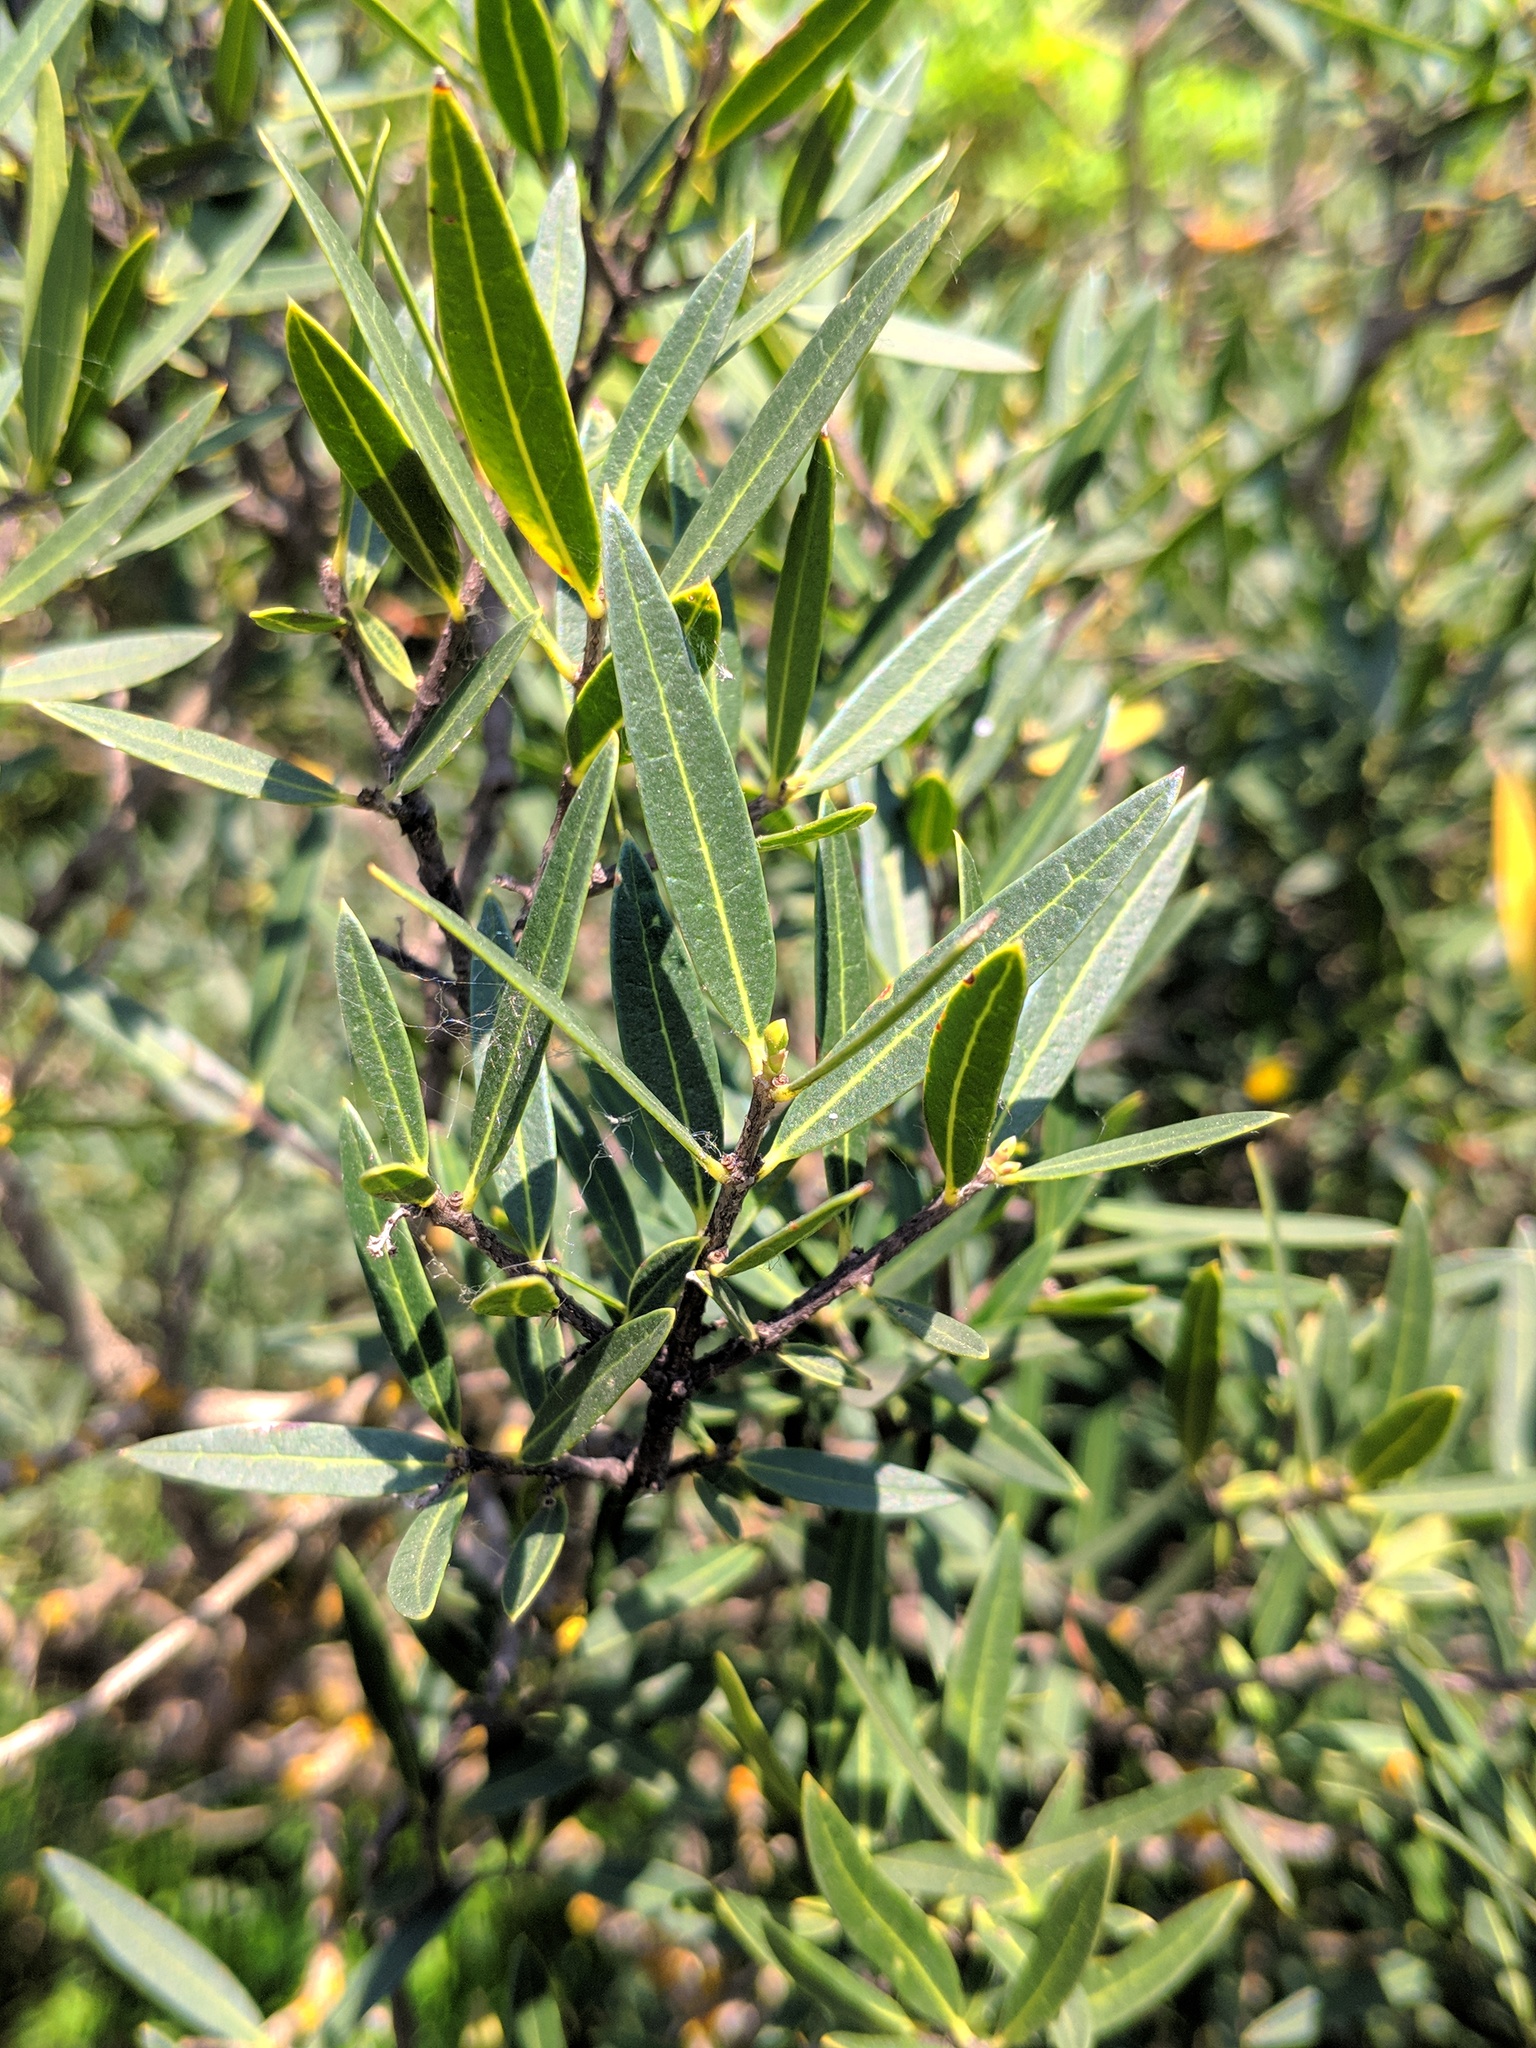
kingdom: Plantae
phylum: Tracheophyta
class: Magnoliopsida
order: Lamiales
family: Oleaceae
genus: Phillyrea
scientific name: Phillyrea angustifolia
